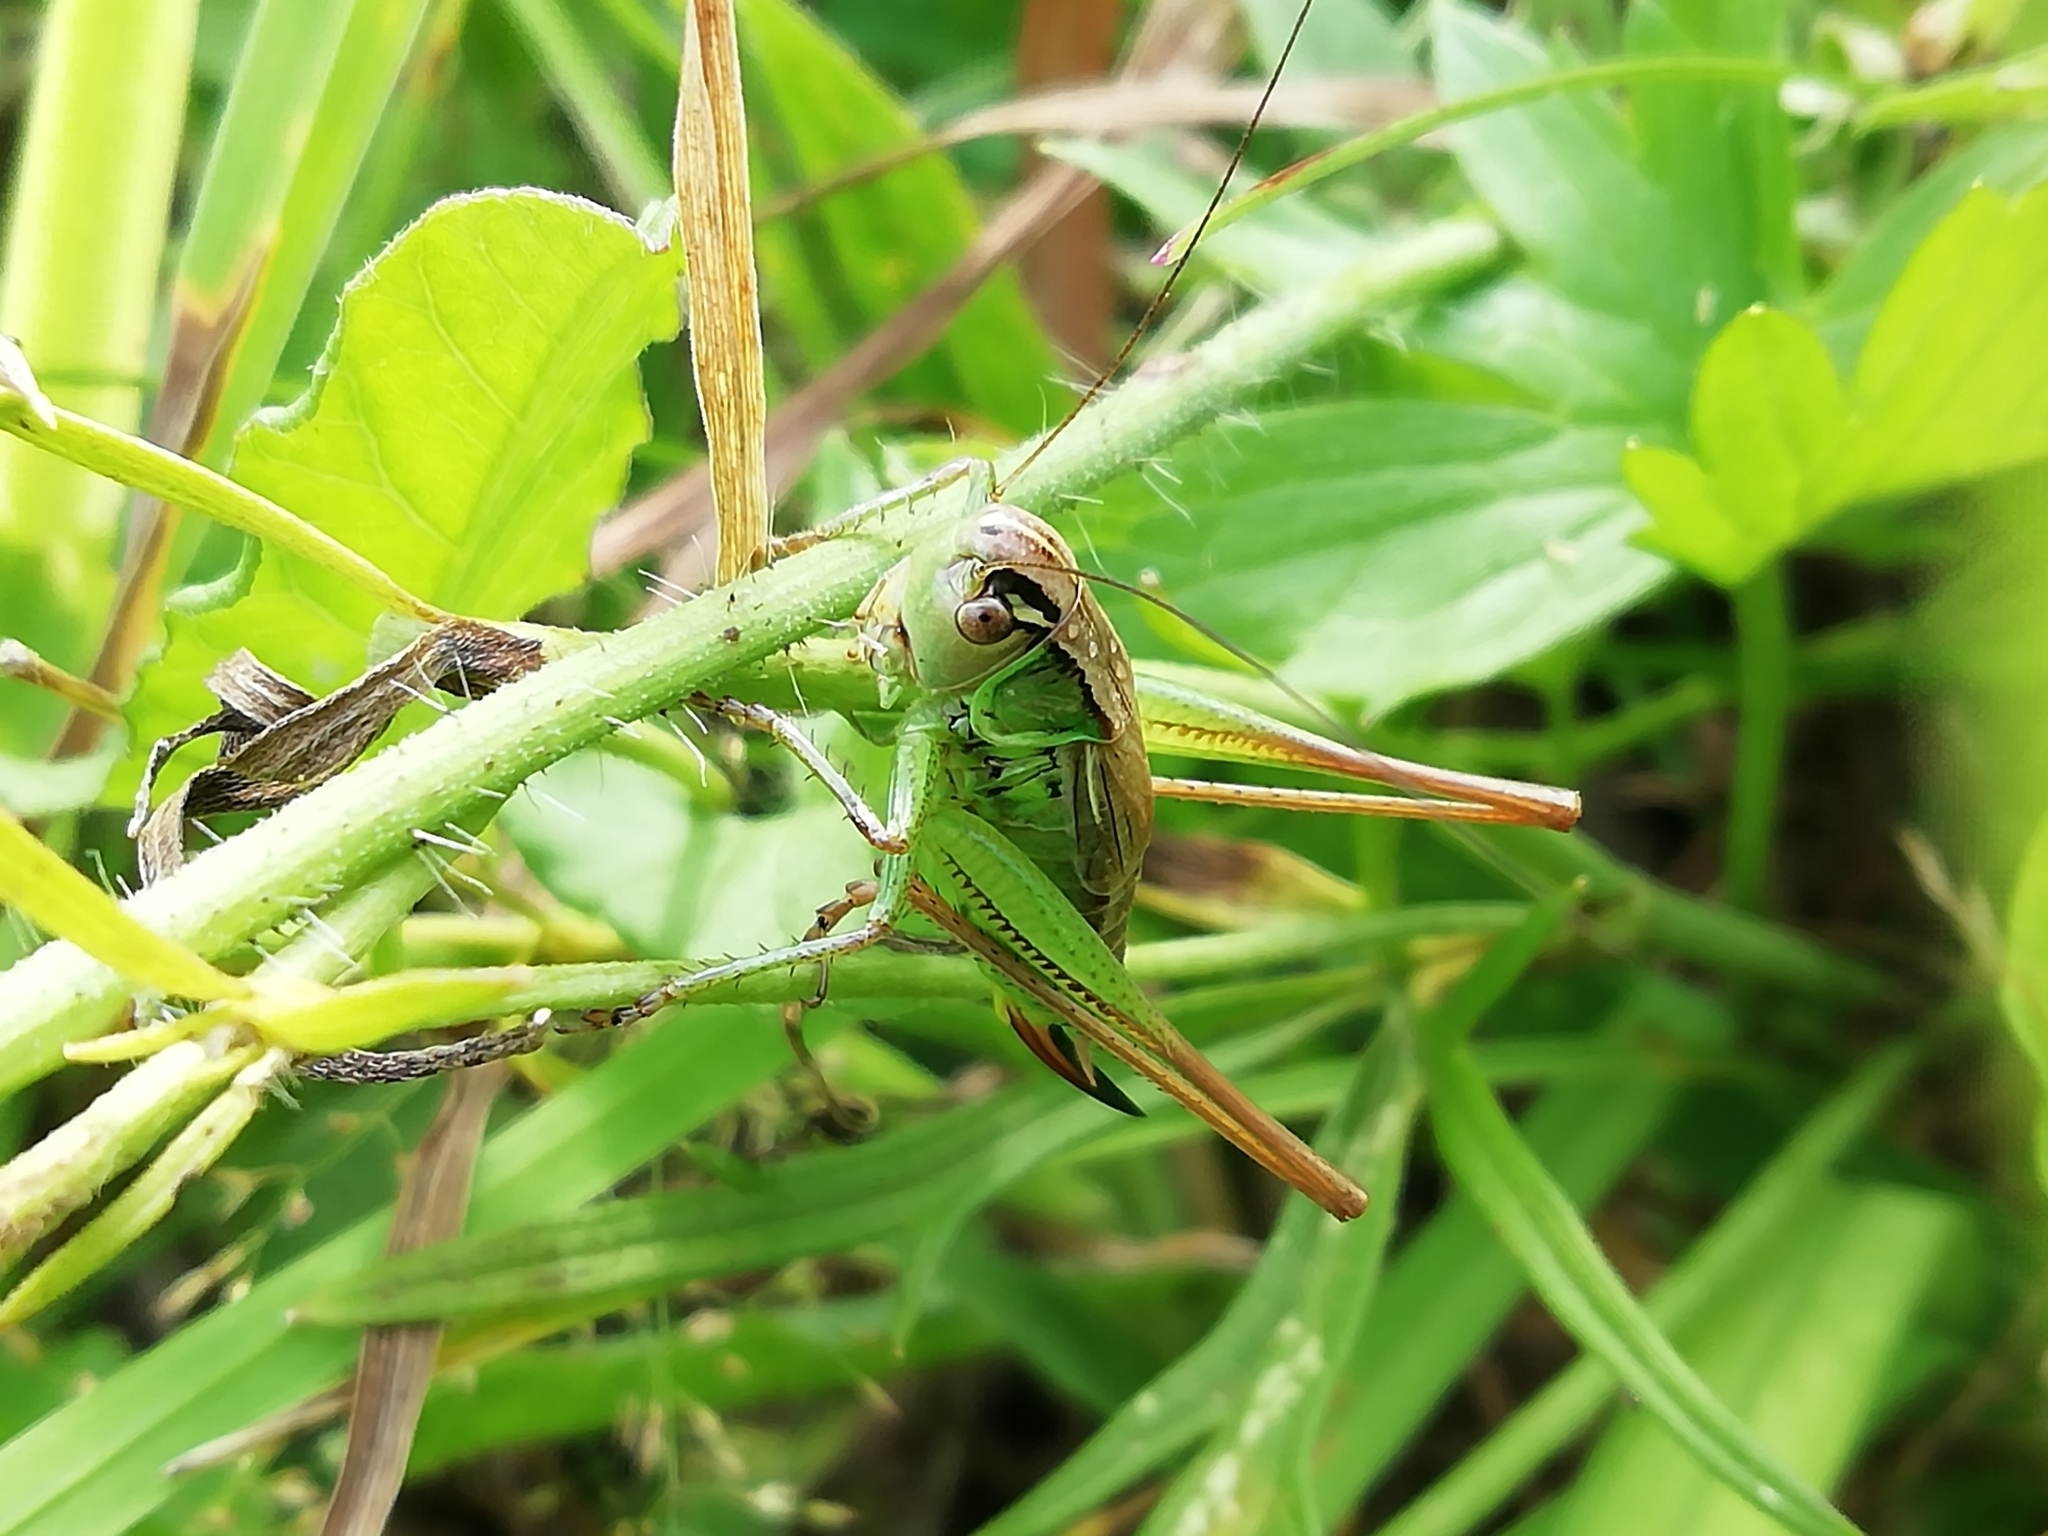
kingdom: Animalia
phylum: Arthropoda
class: Insecta
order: Orthoptera
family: Tettigoniidae
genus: Roeseliana
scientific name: Roeseliana roeselii
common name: Roesel's bush cricket
